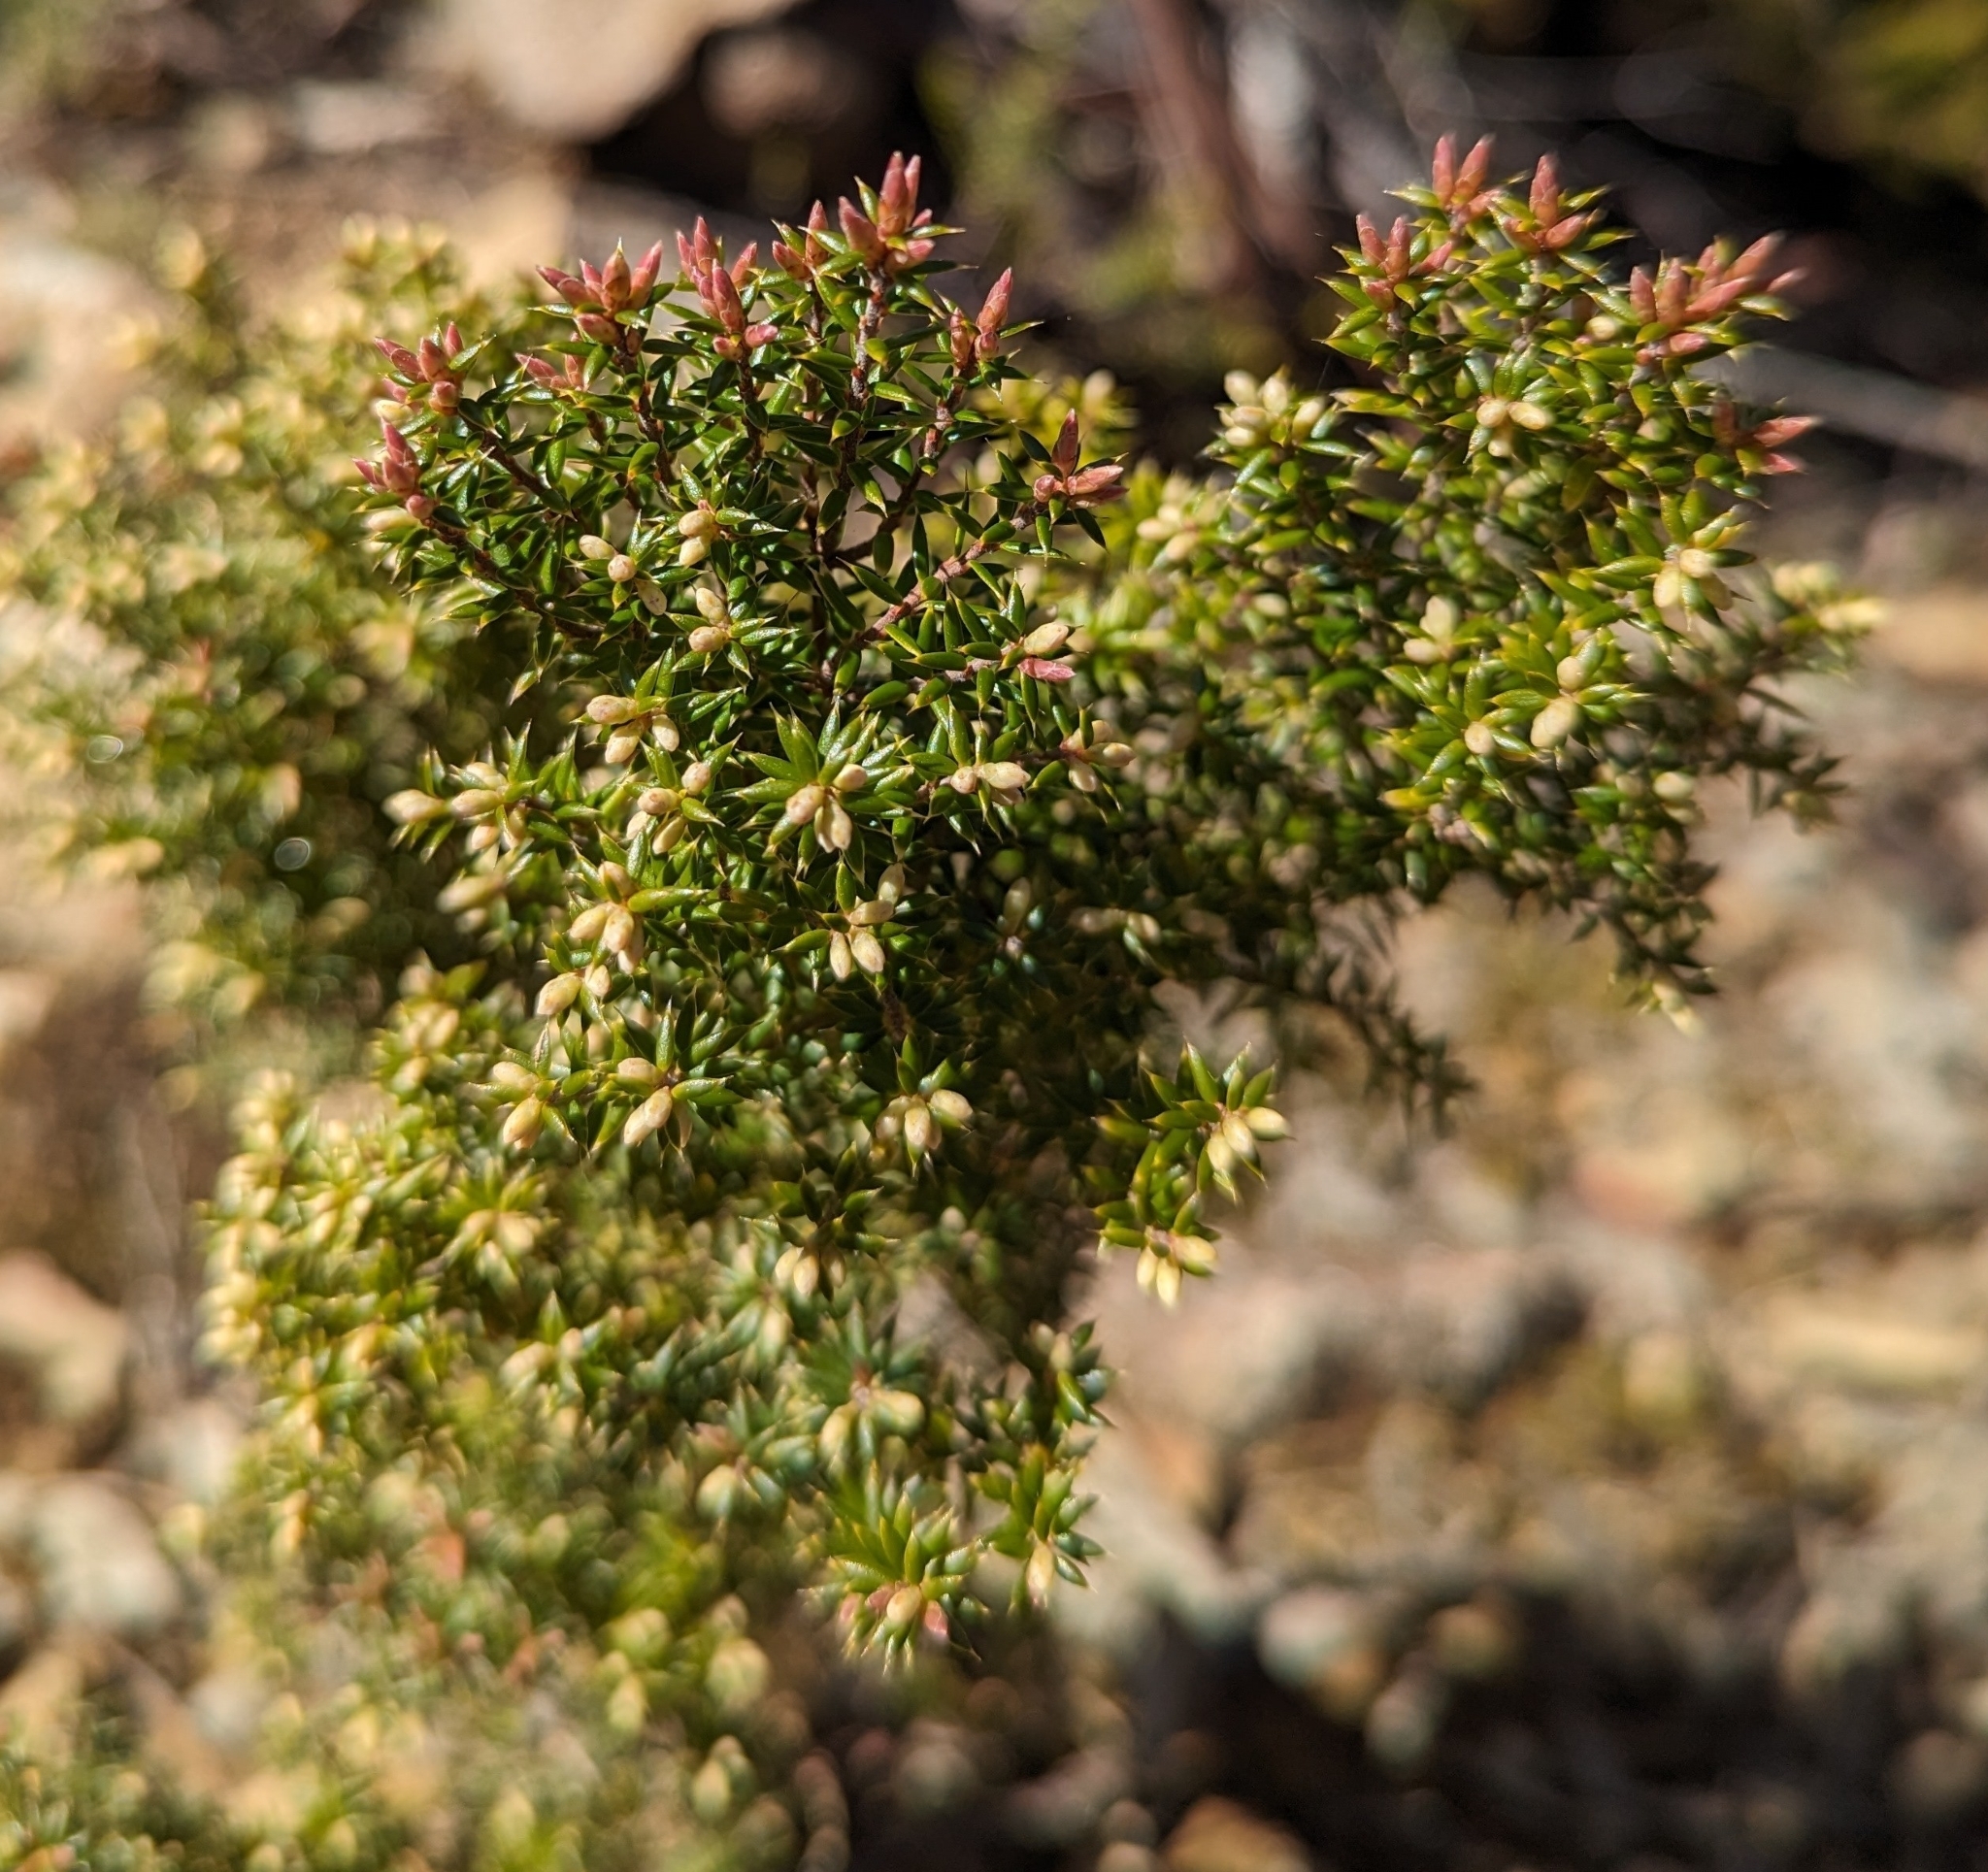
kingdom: Plantae
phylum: Tracheophyta
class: Magnoliopsida
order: Ericales
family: Ericaceae
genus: Leptecophylla
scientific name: Leptecophylla parvifolia
